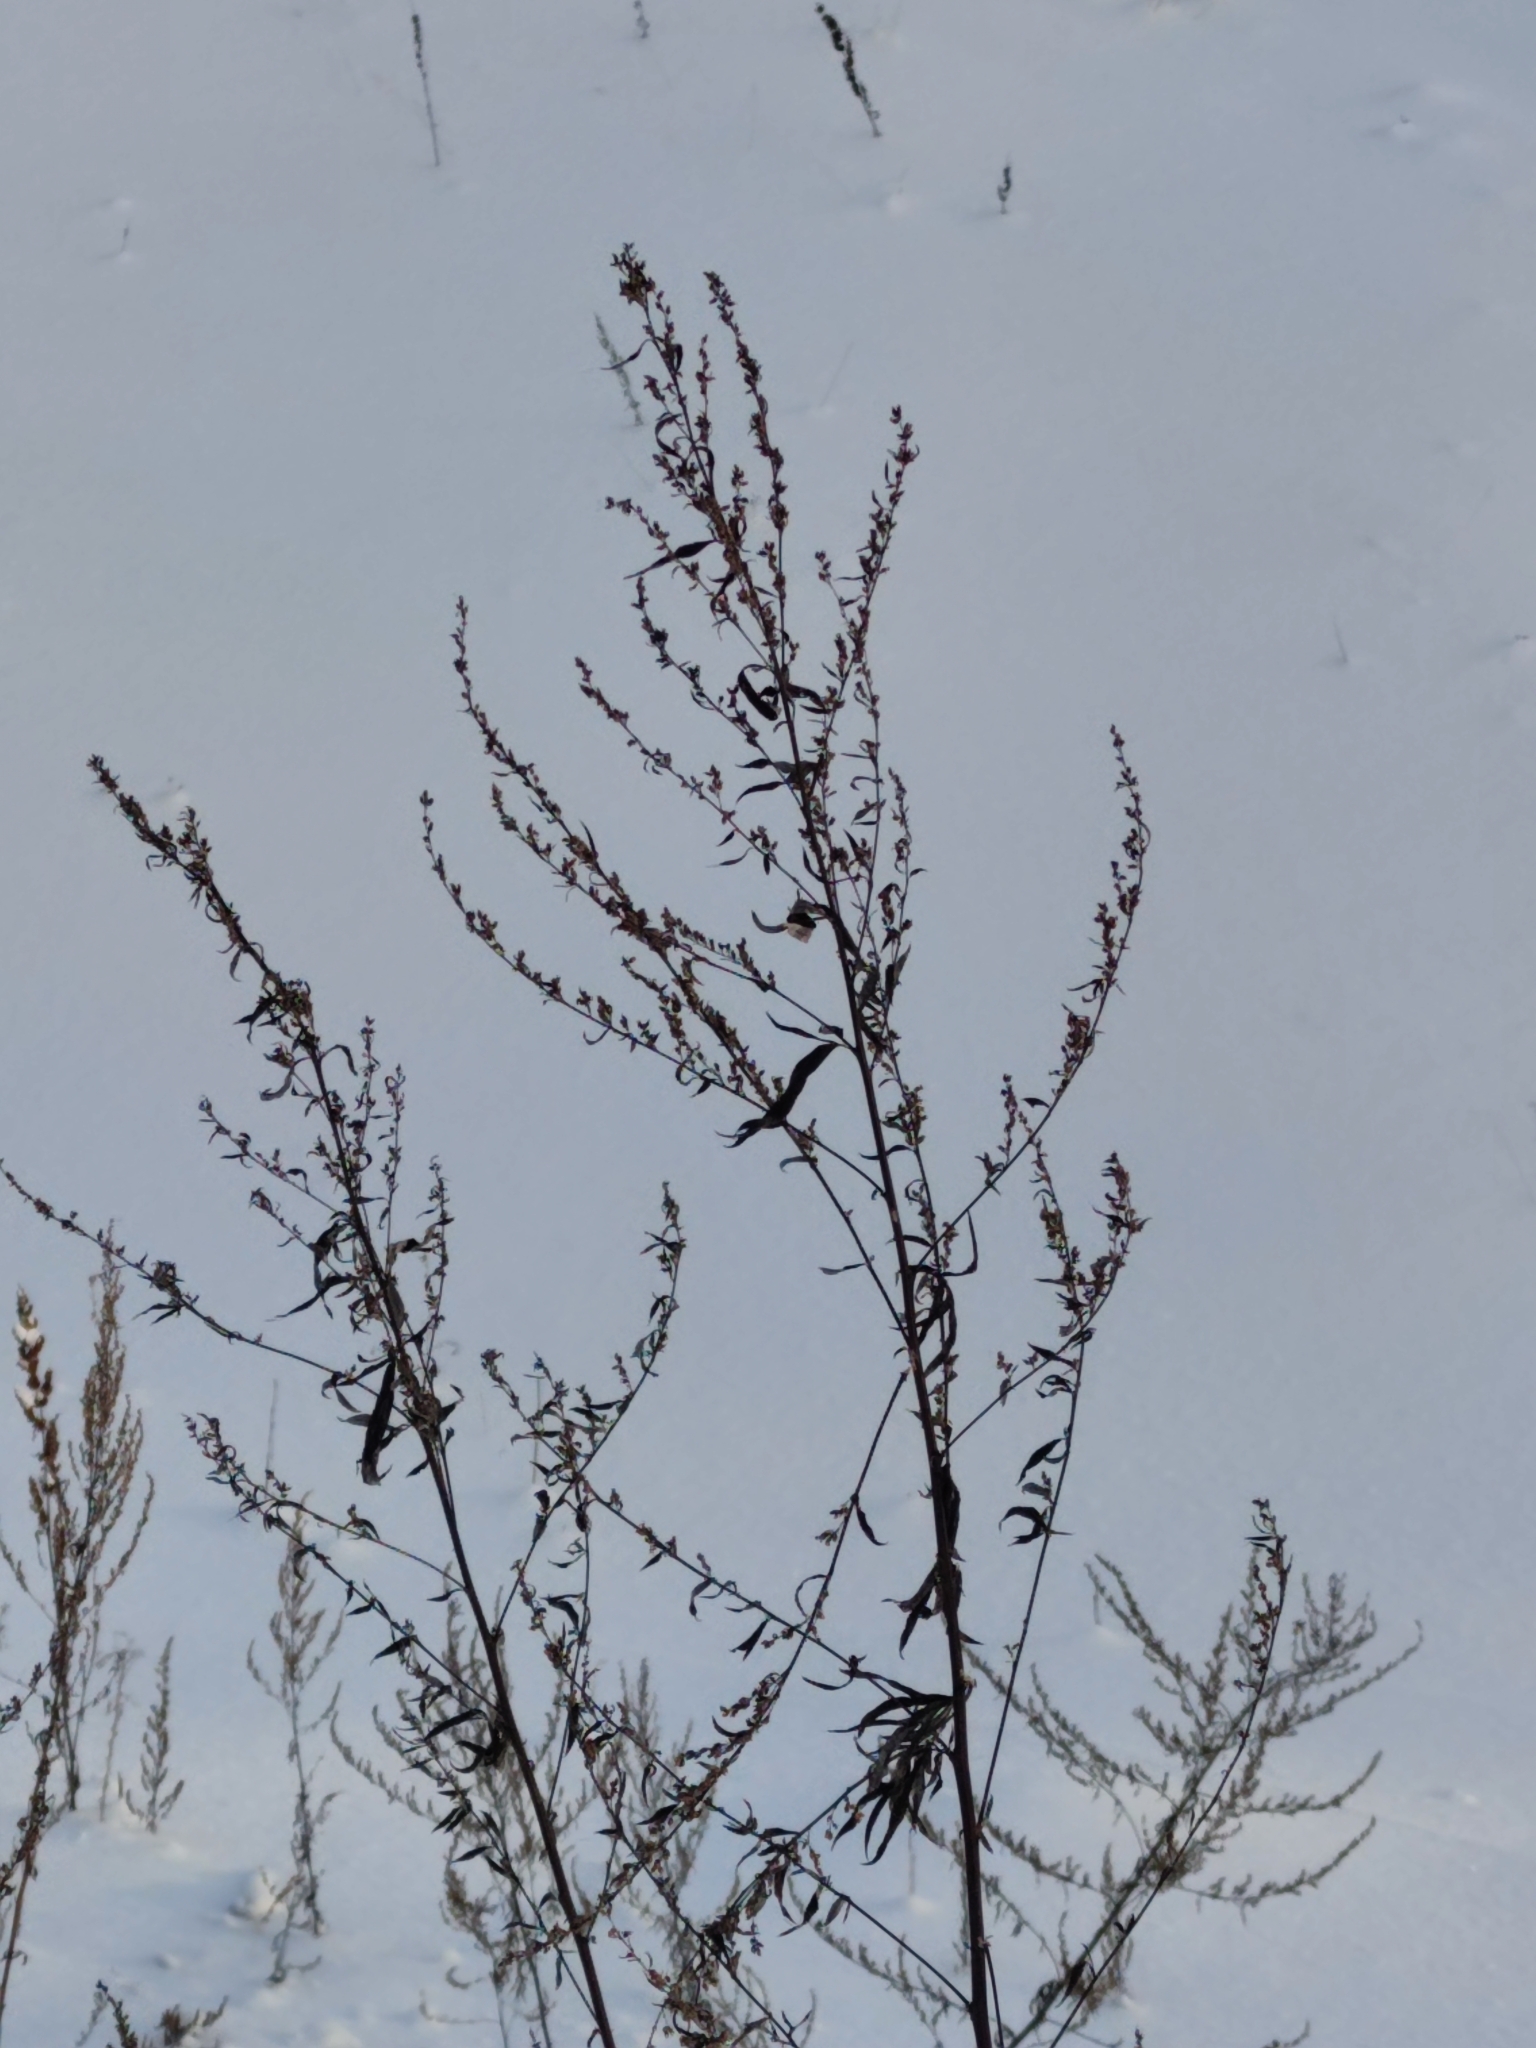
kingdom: Plantae
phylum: Tracheophyta
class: Magnoliopsida
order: Asterales
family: Asteraceae
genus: Artemisia
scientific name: Artemisia vulgaris
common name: Mugwort
